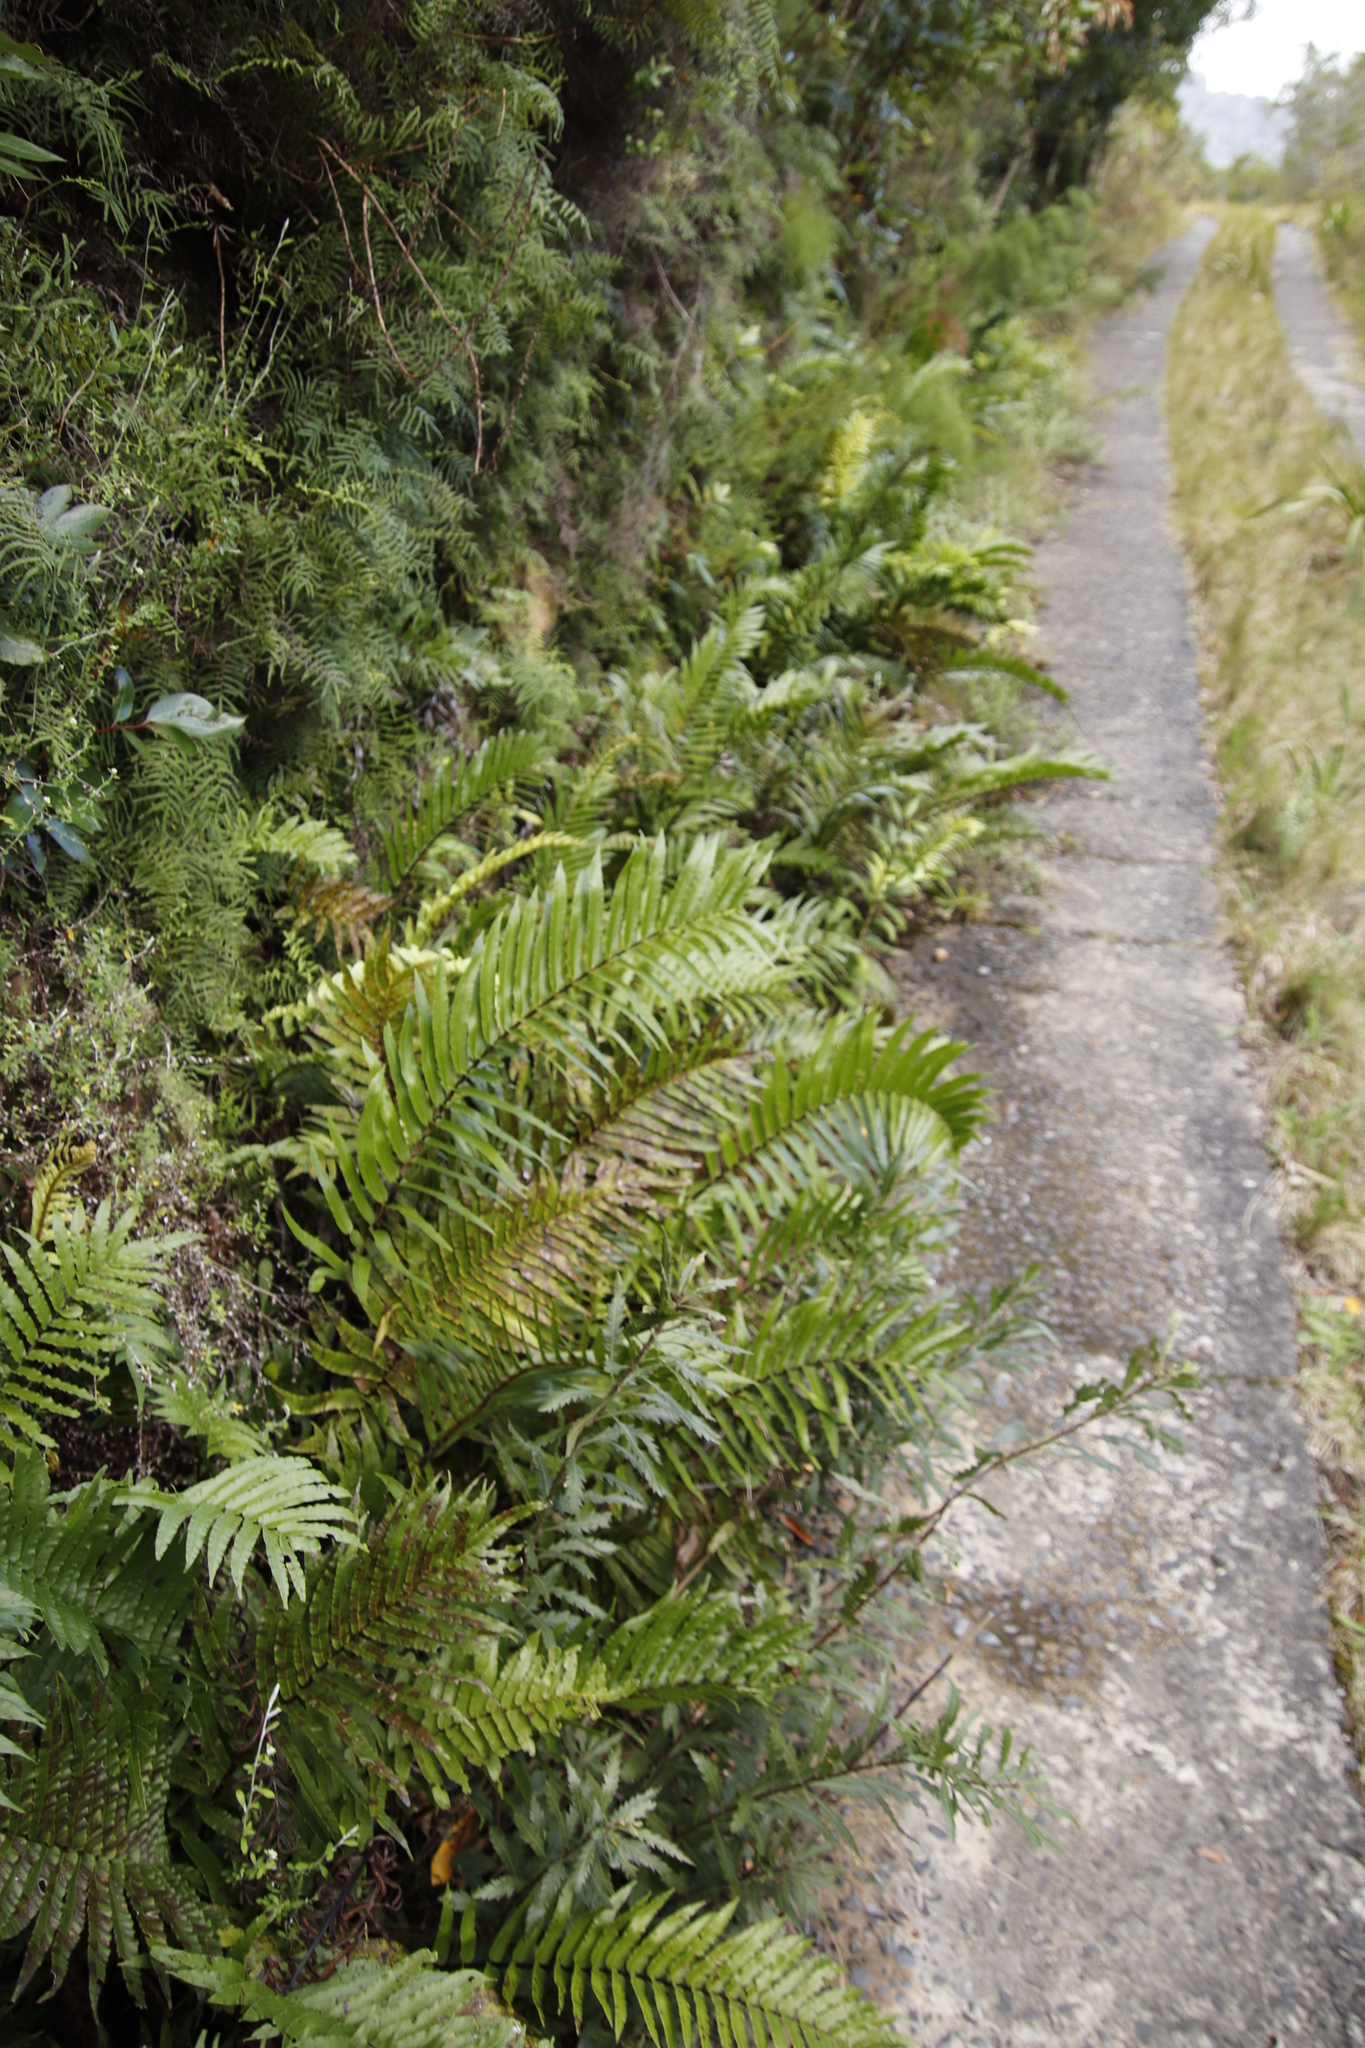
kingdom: Plantae
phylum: Tracheophyta
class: Polypodiopsida
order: Polypodiales
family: Blechnaceae
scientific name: Blechnaceae
